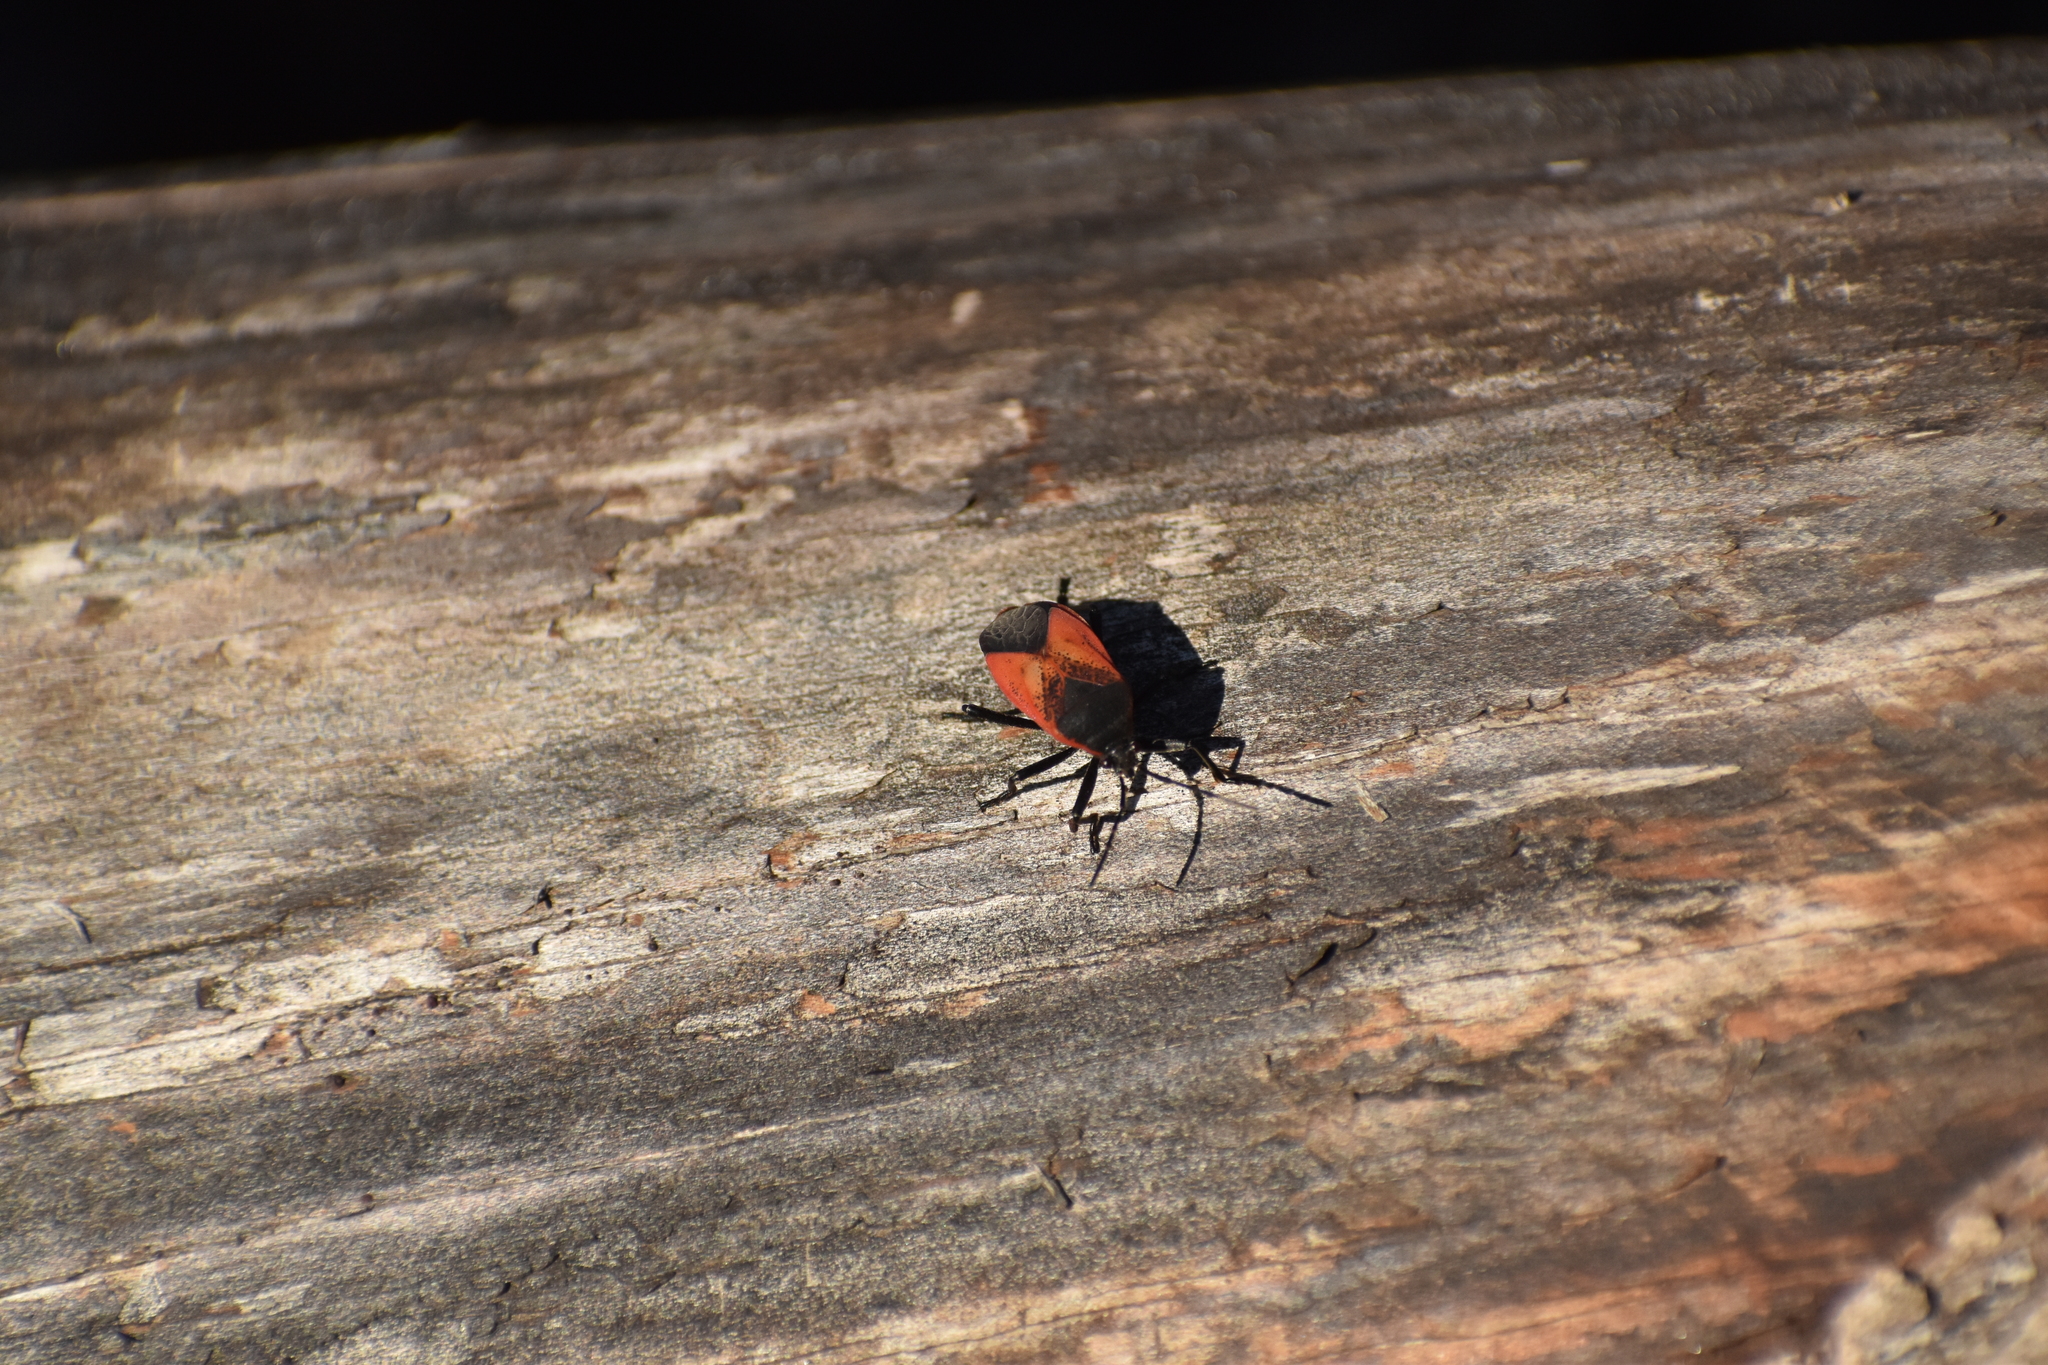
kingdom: Animalia
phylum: Arthropoda
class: Insecta
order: Hemiptera
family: Largidae
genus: Largus
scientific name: Largus rufipennis
